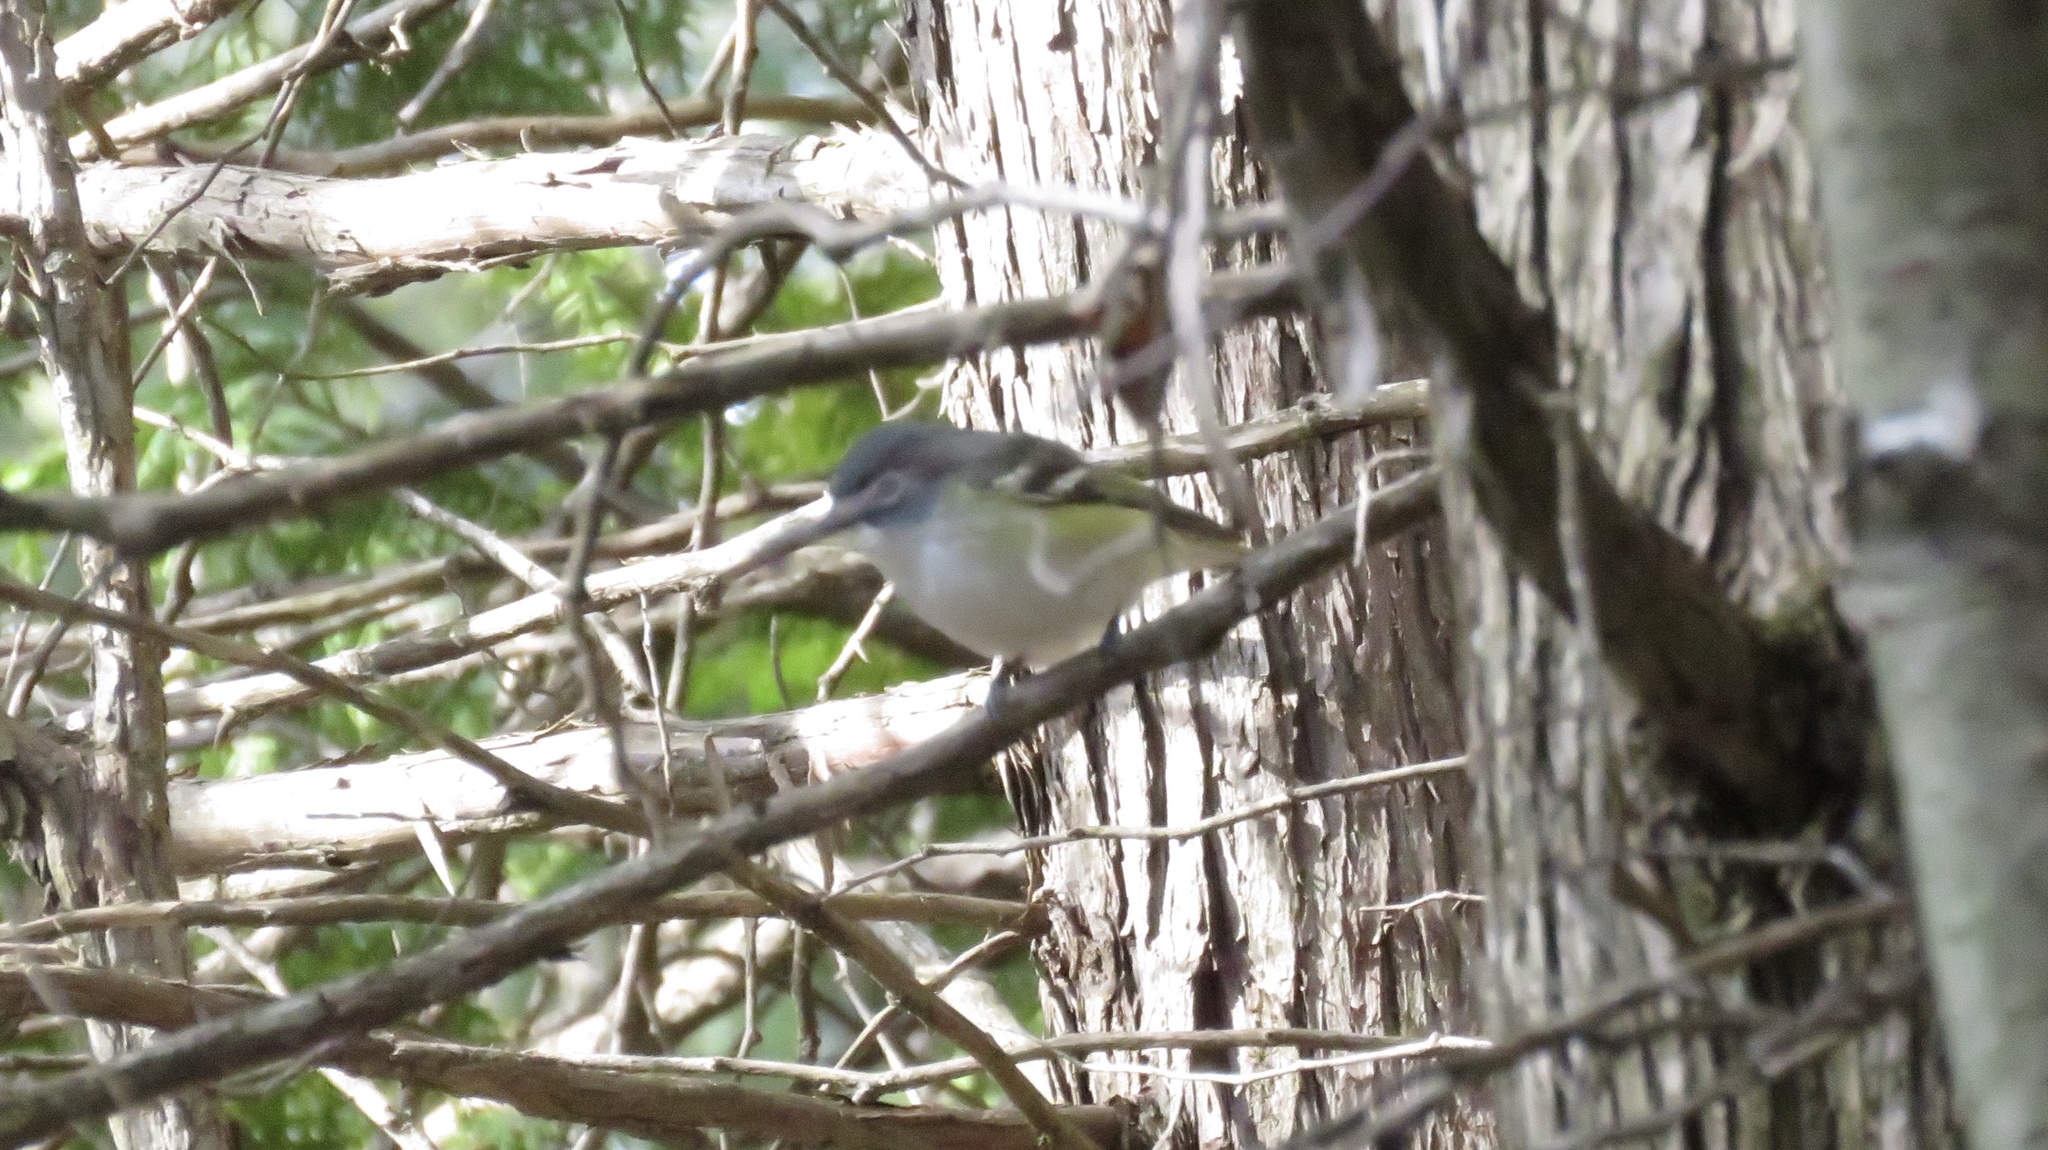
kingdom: Animalia
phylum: Chordata
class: Aves
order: Passeriformes
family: Vireonidae
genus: Vireo
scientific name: Vireo solitarius
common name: Blue-headed vireo
